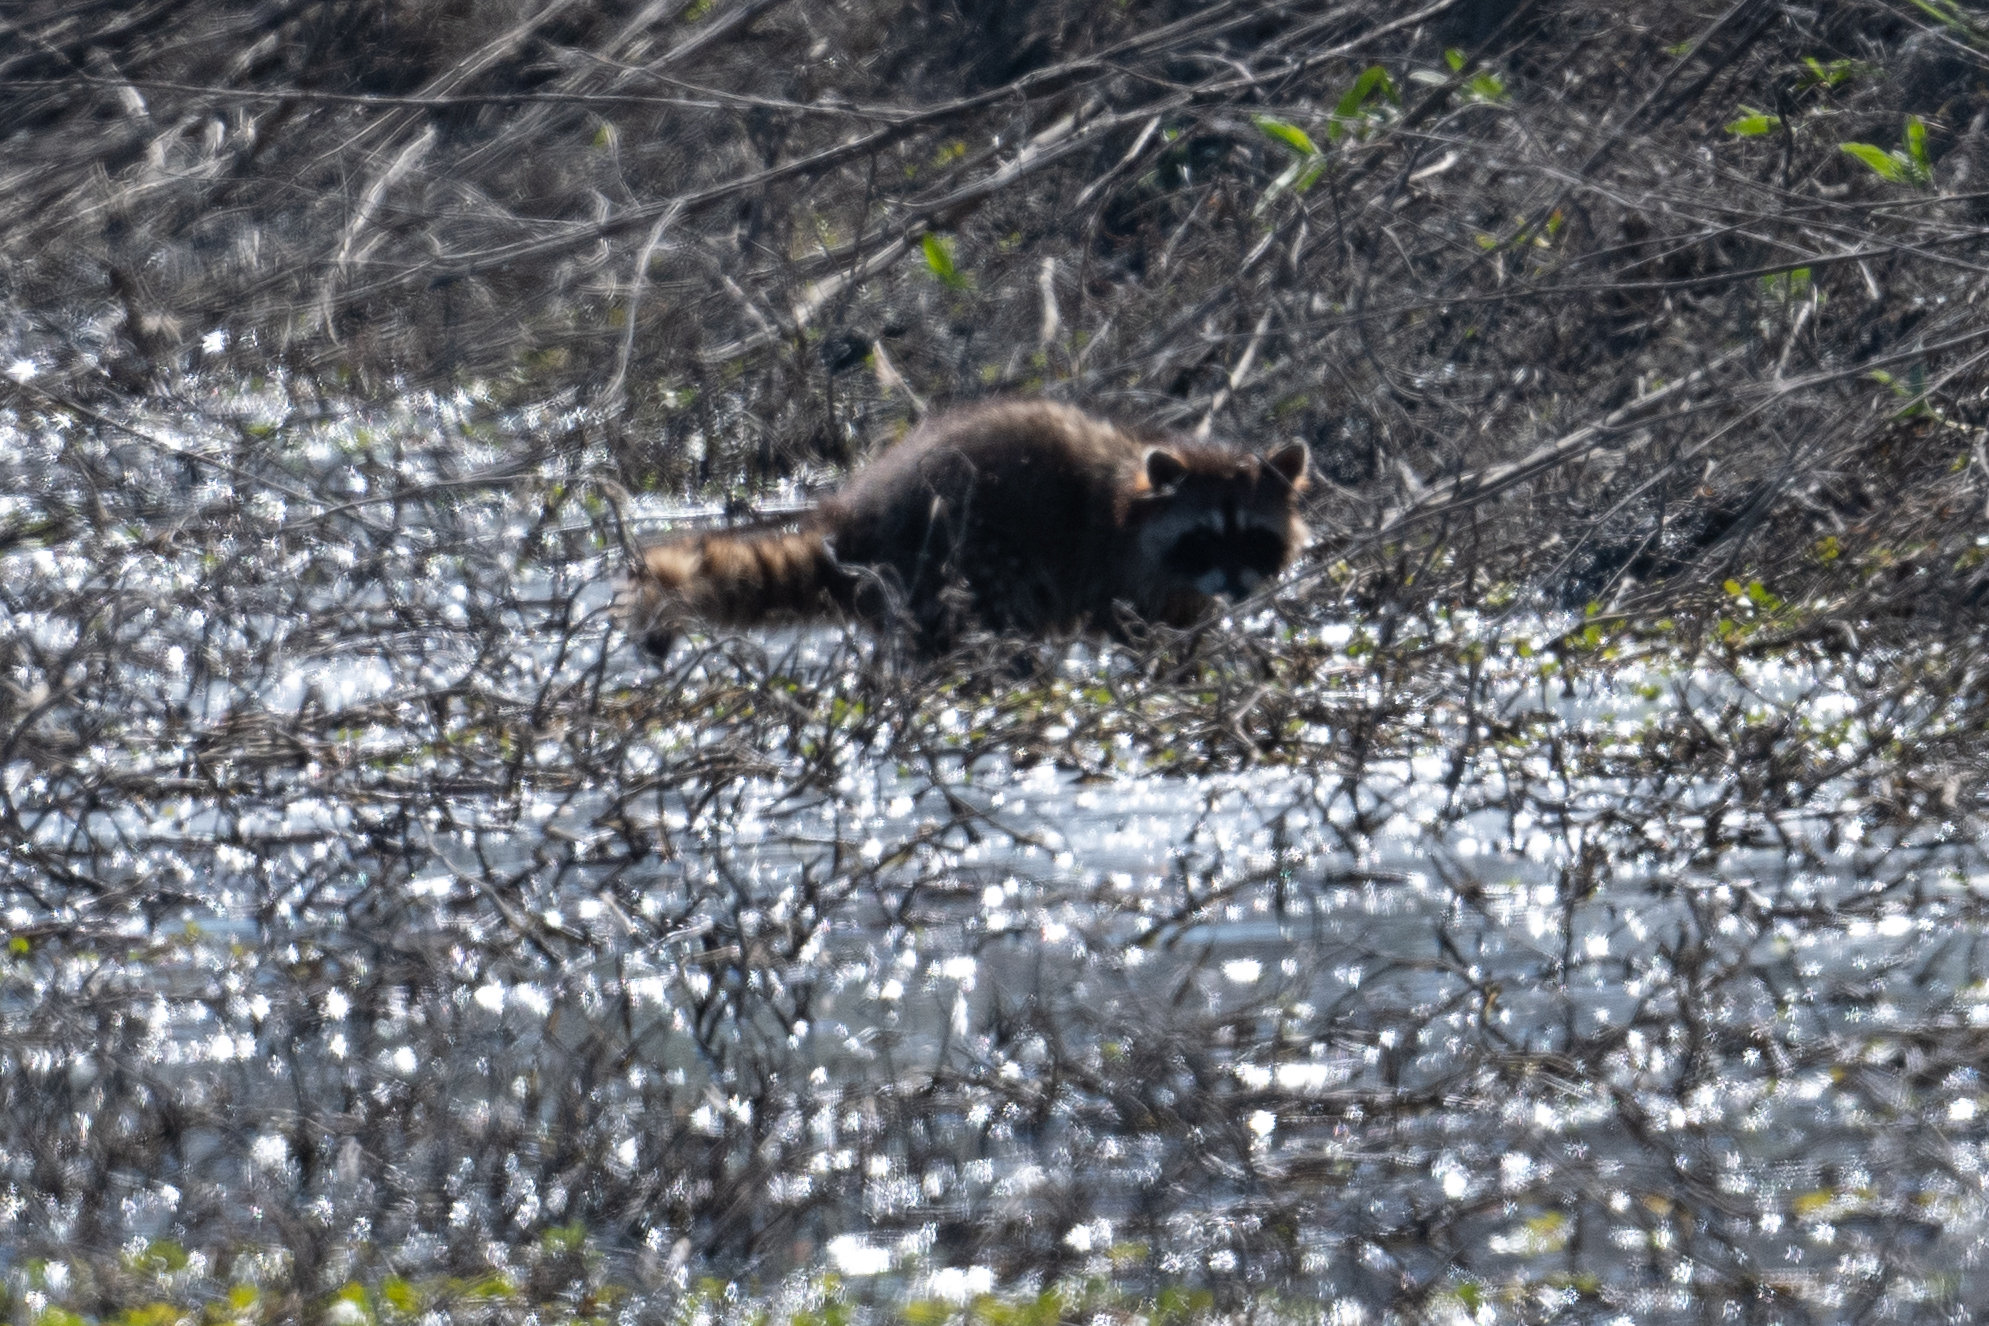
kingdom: Animalia
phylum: Chordata
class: Mammalia
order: Carnivora
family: Procyonidae
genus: Procyon
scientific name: Procyon lotor
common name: Raccoon
